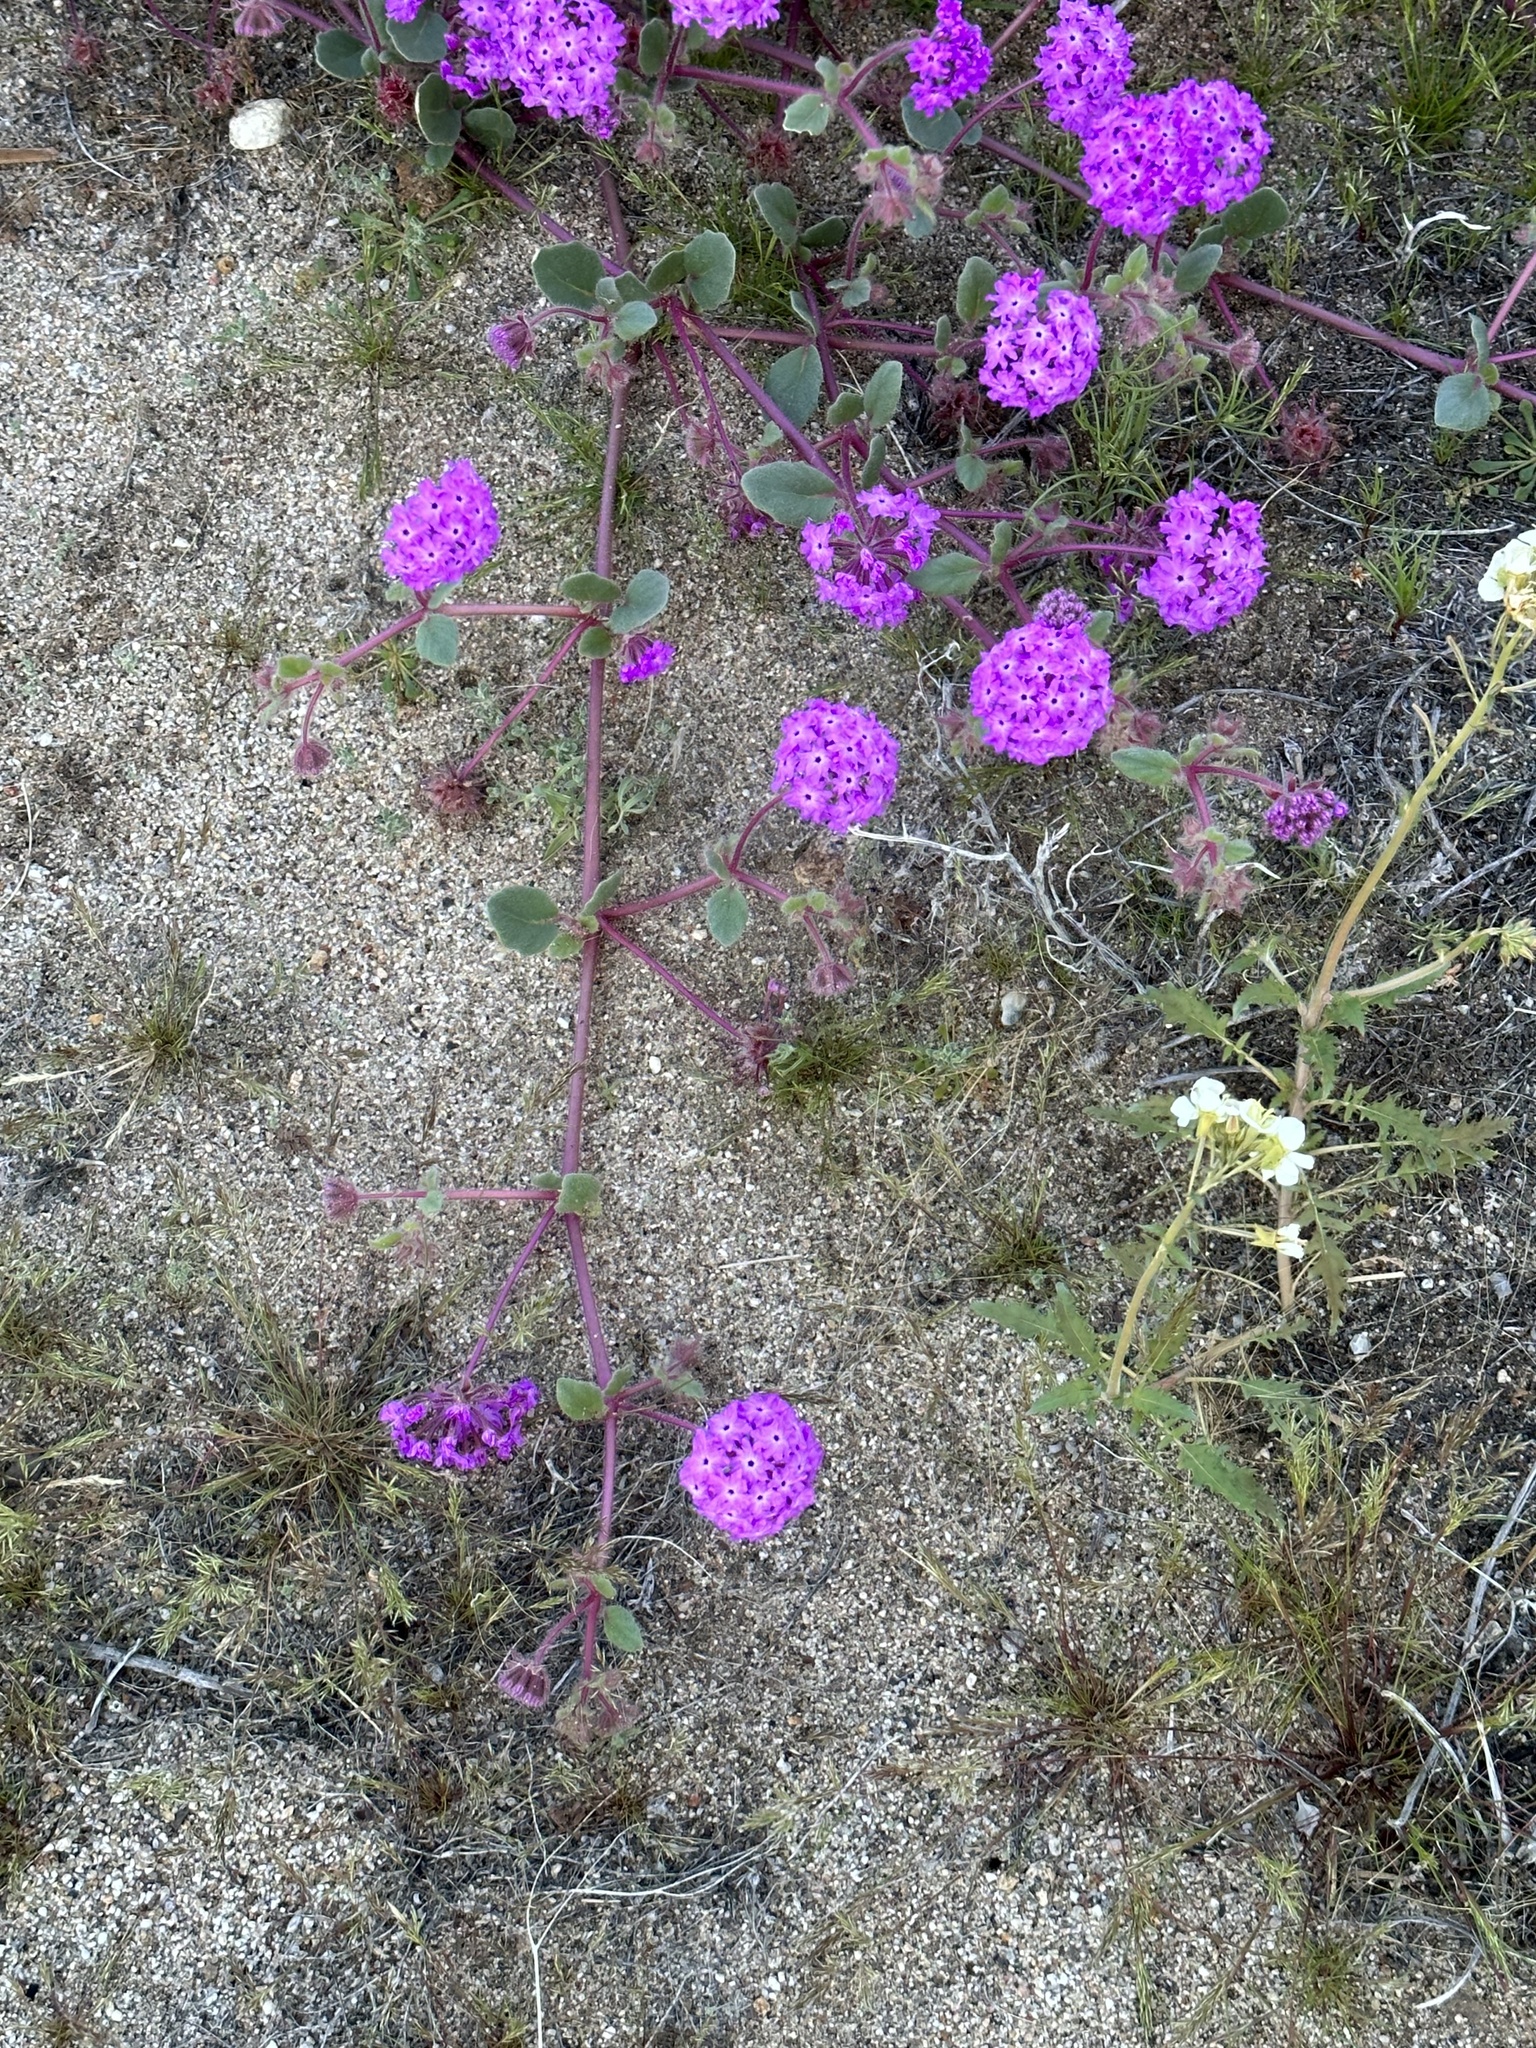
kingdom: Plantae
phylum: Tracheophyta
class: Magnoliopsida
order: Caryophyllales
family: Nyctaginaceae
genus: Abronia
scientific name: Abronia villosa
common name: Desert sand-verbena
